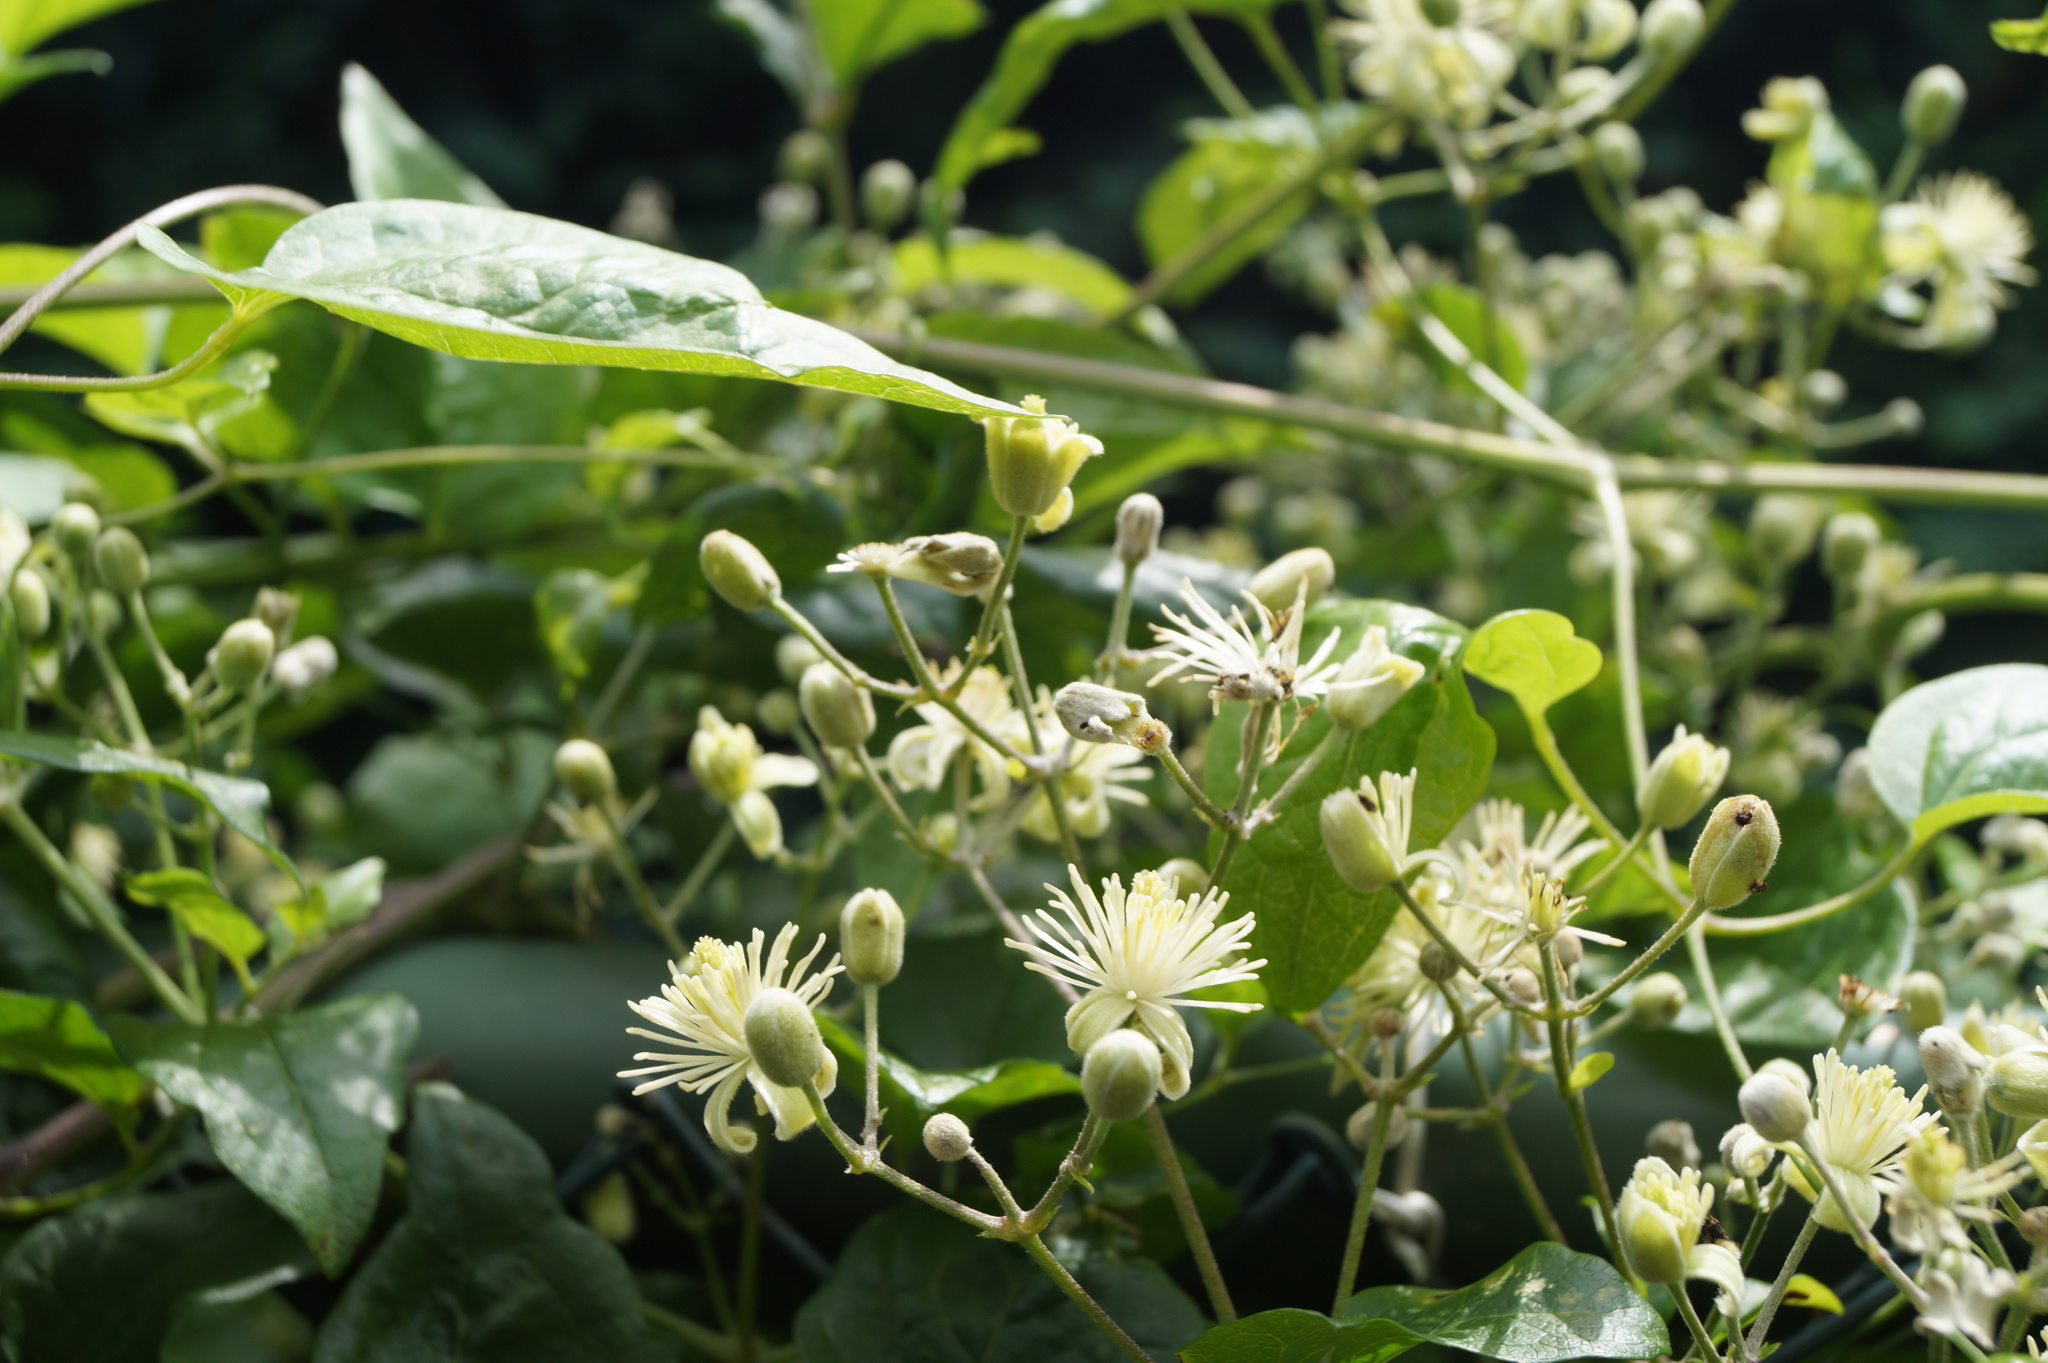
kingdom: Plantae
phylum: Tracheophyta
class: Magnoliopsida
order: Ranunculales
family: Ranunculaceae
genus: Clematis
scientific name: Clematis vitalba
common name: Evergreen clematis
